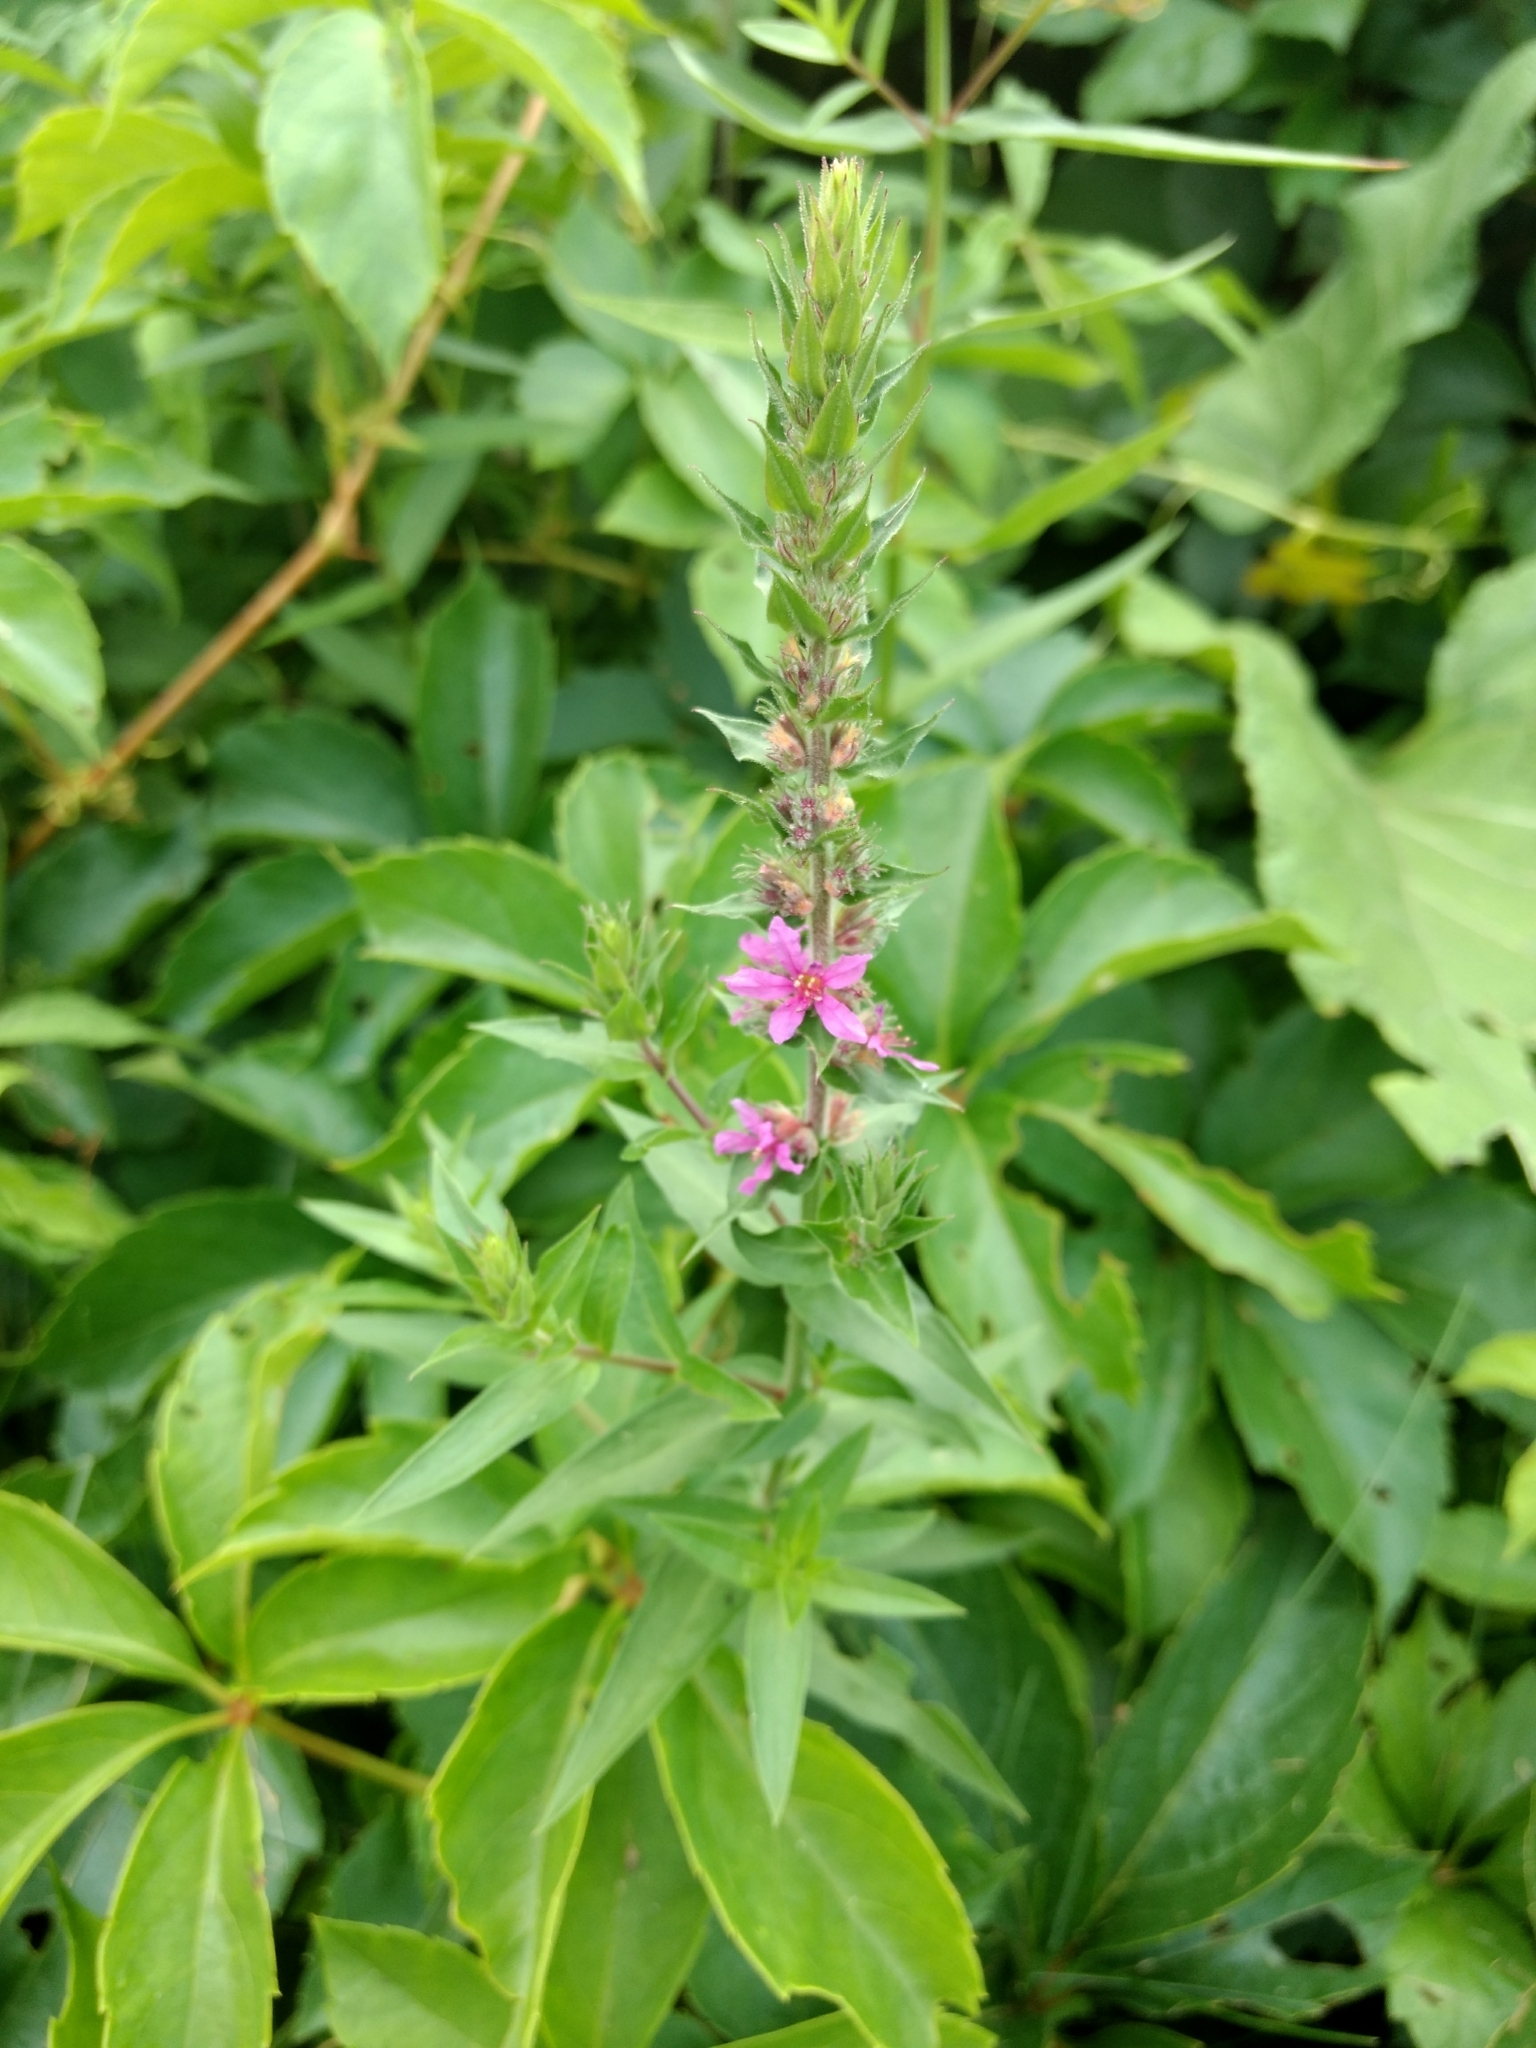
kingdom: Plantae
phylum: Tracheophyta
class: Magnoliopsida
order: Myrtales
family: Lythraceae
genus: Lythrum
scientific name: Lythrum salicaria
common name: Purple loosestrife
